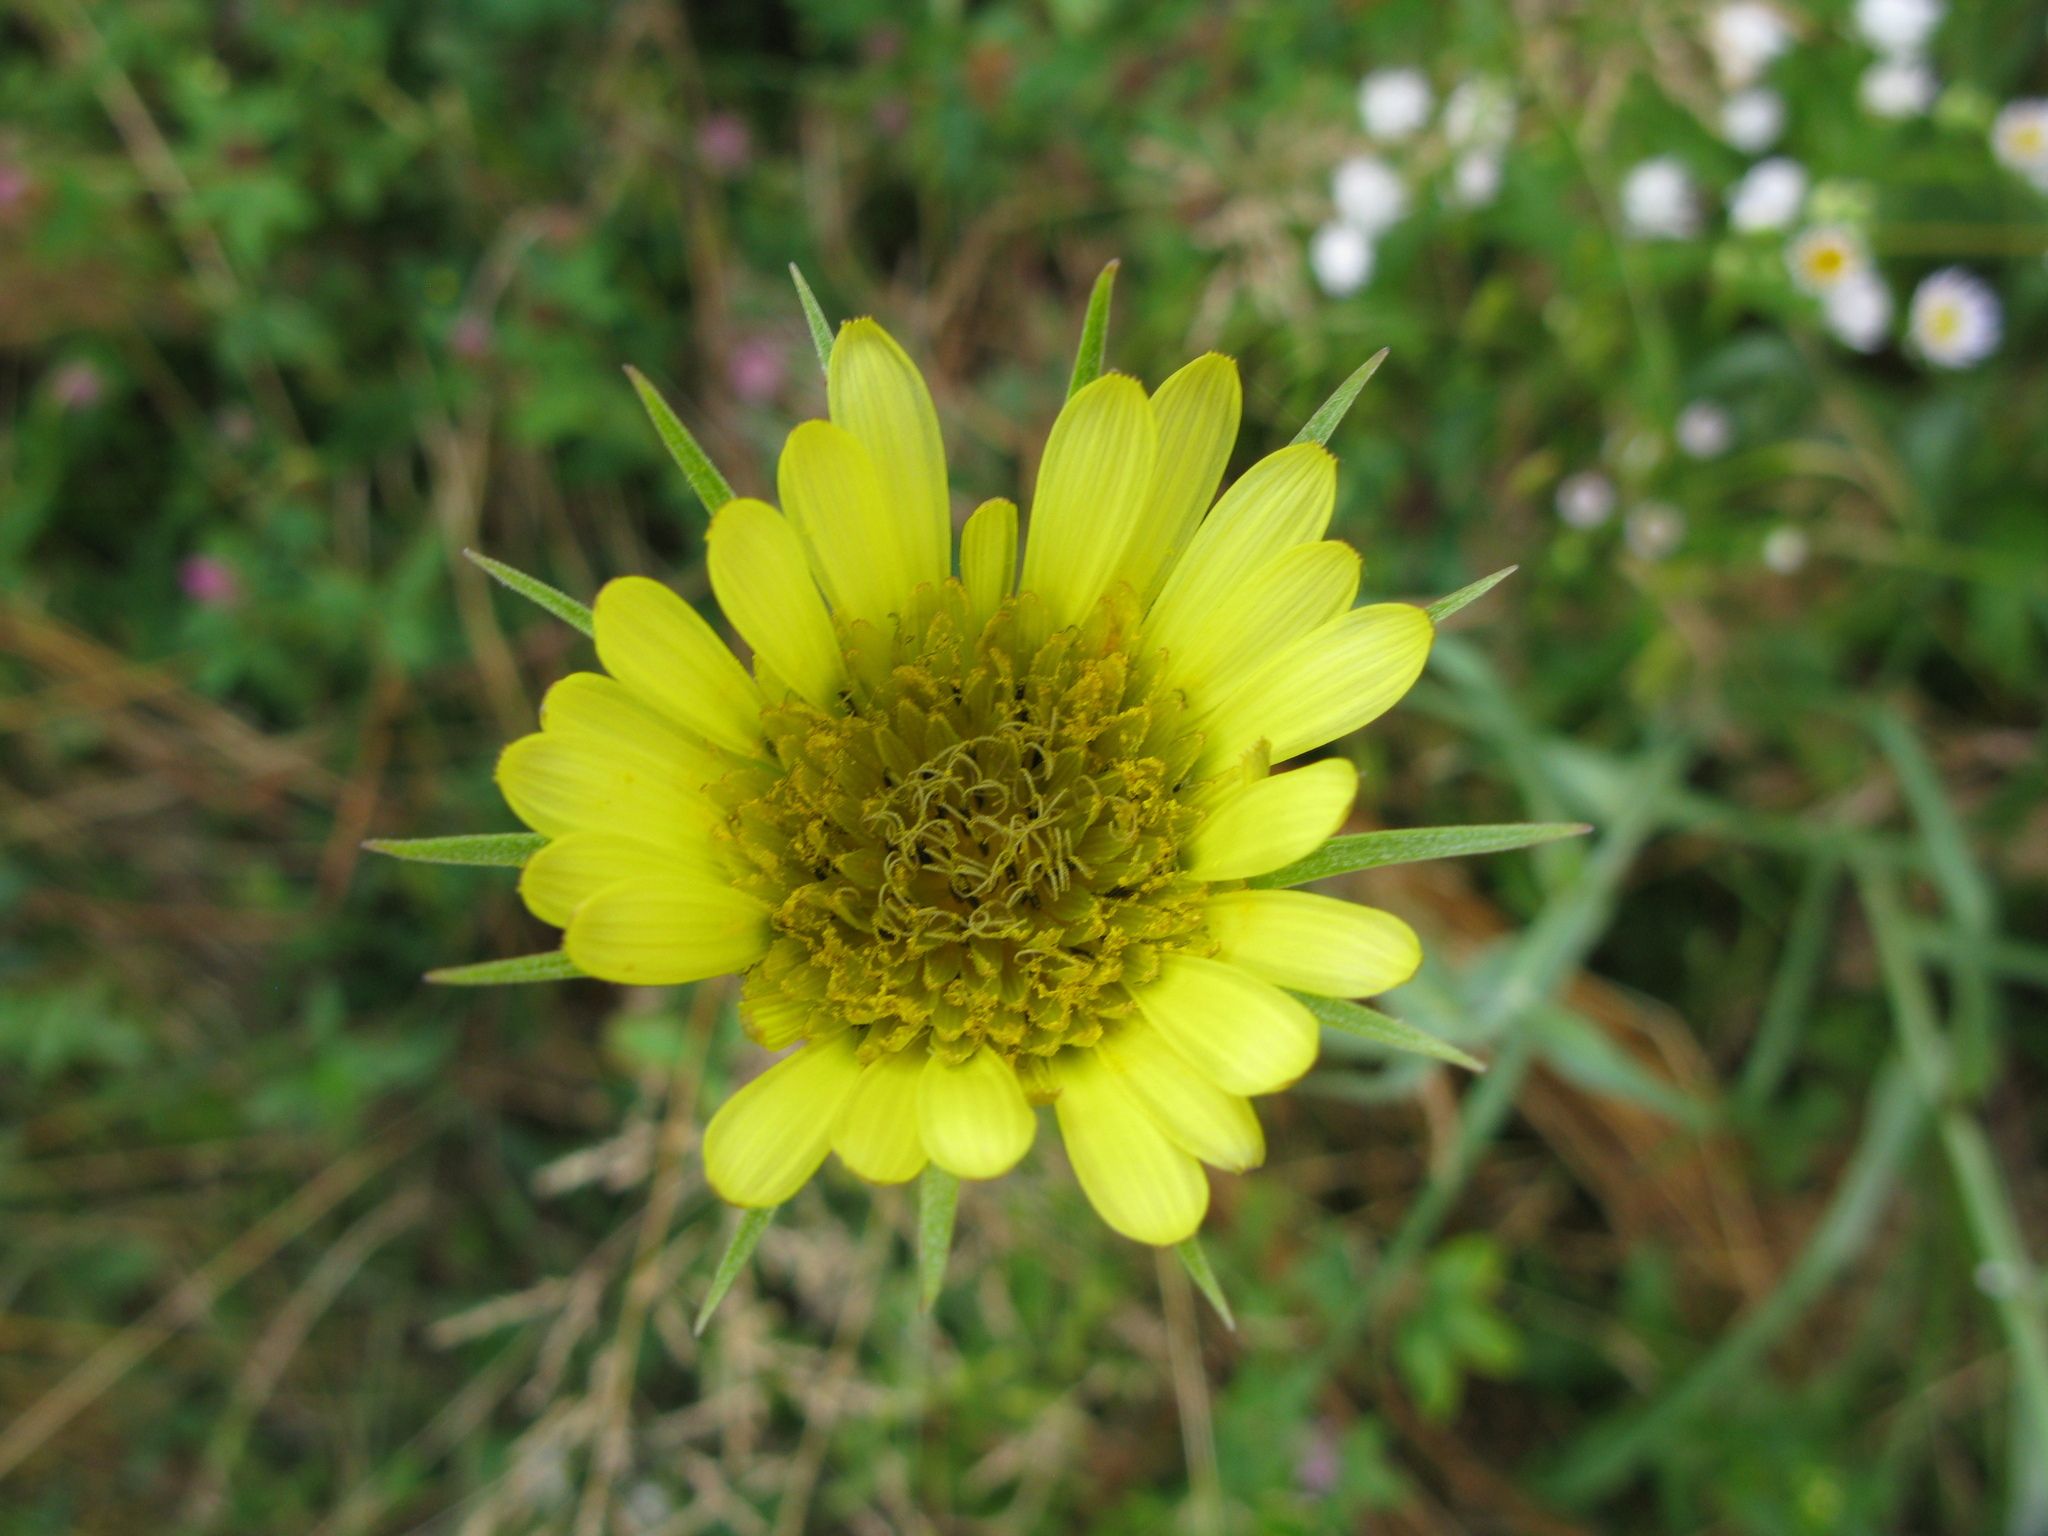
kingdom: Plantae
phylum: Tracheophyta
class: Magnoliopsida
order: Asterales
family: Asteraceae
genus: Tragopogon
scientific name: Tragopogon dubius
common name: Yellow salsify
